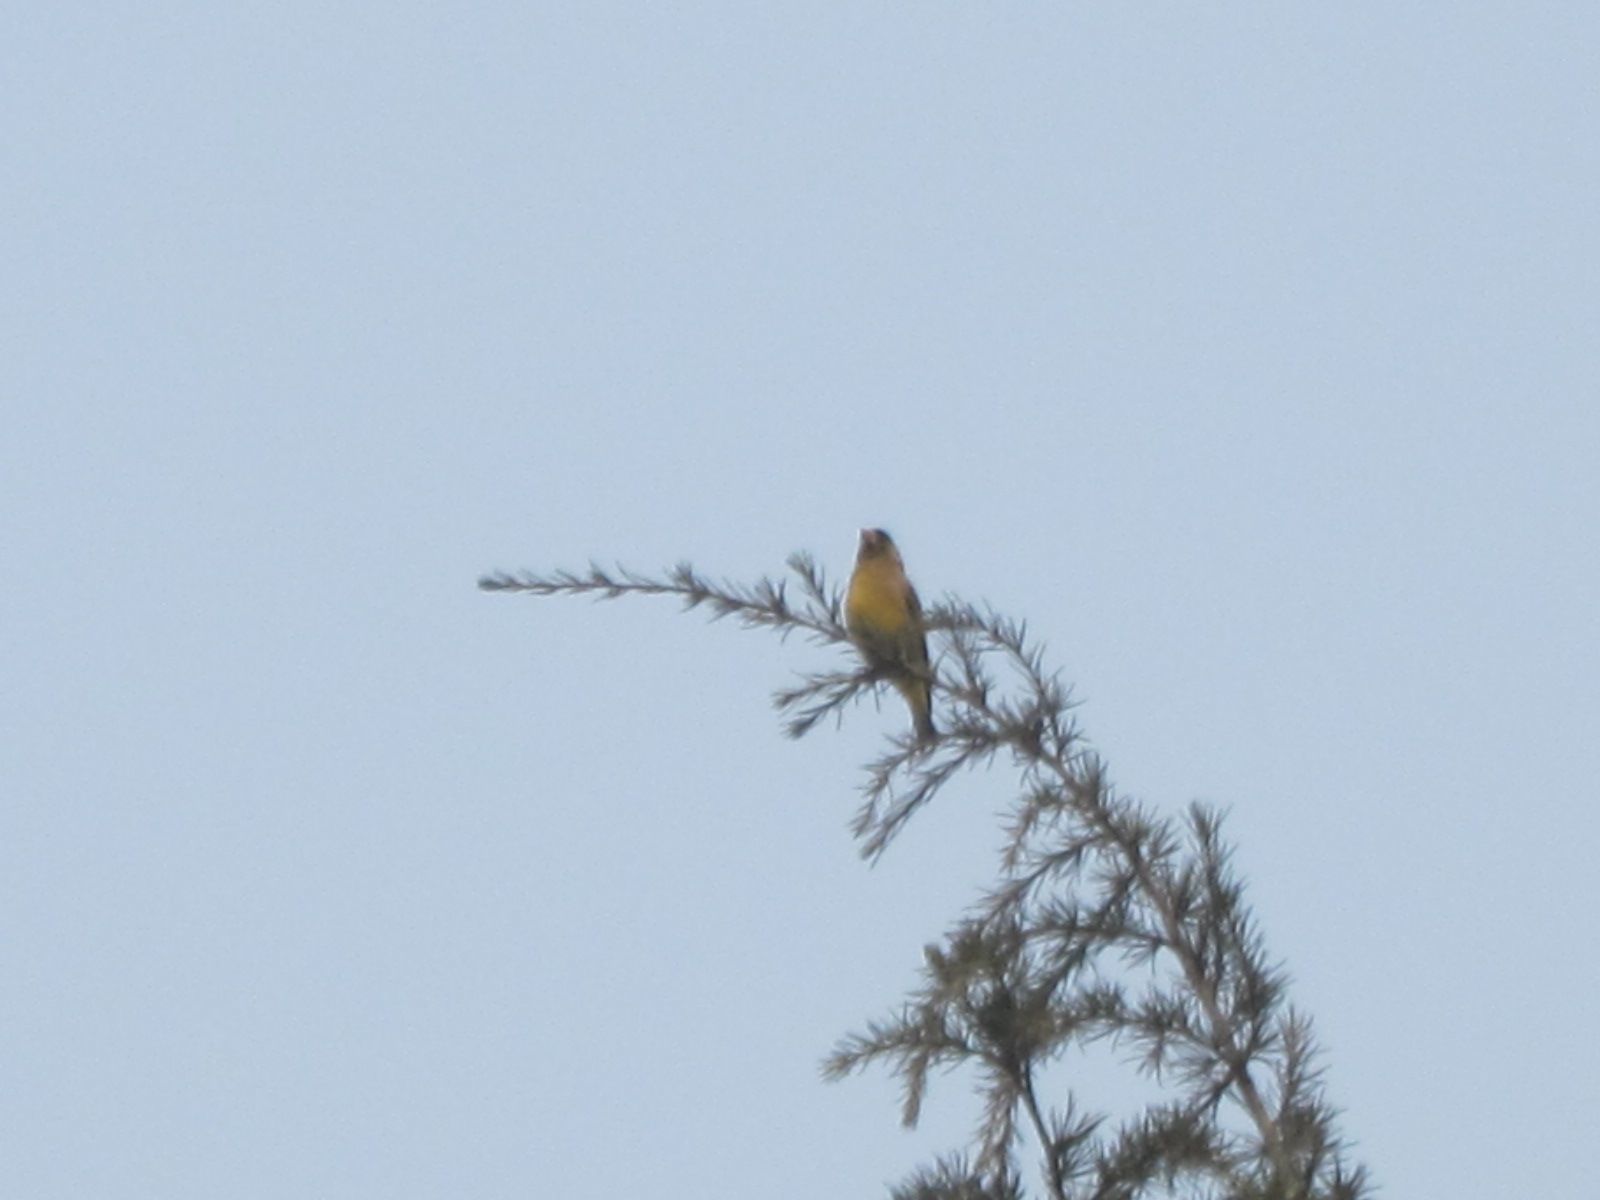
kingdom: Plantae
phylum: Tracheophyta
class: Liliopsida
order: Poales
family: Poaceae
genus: Chloris
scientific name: Chloris sinica
